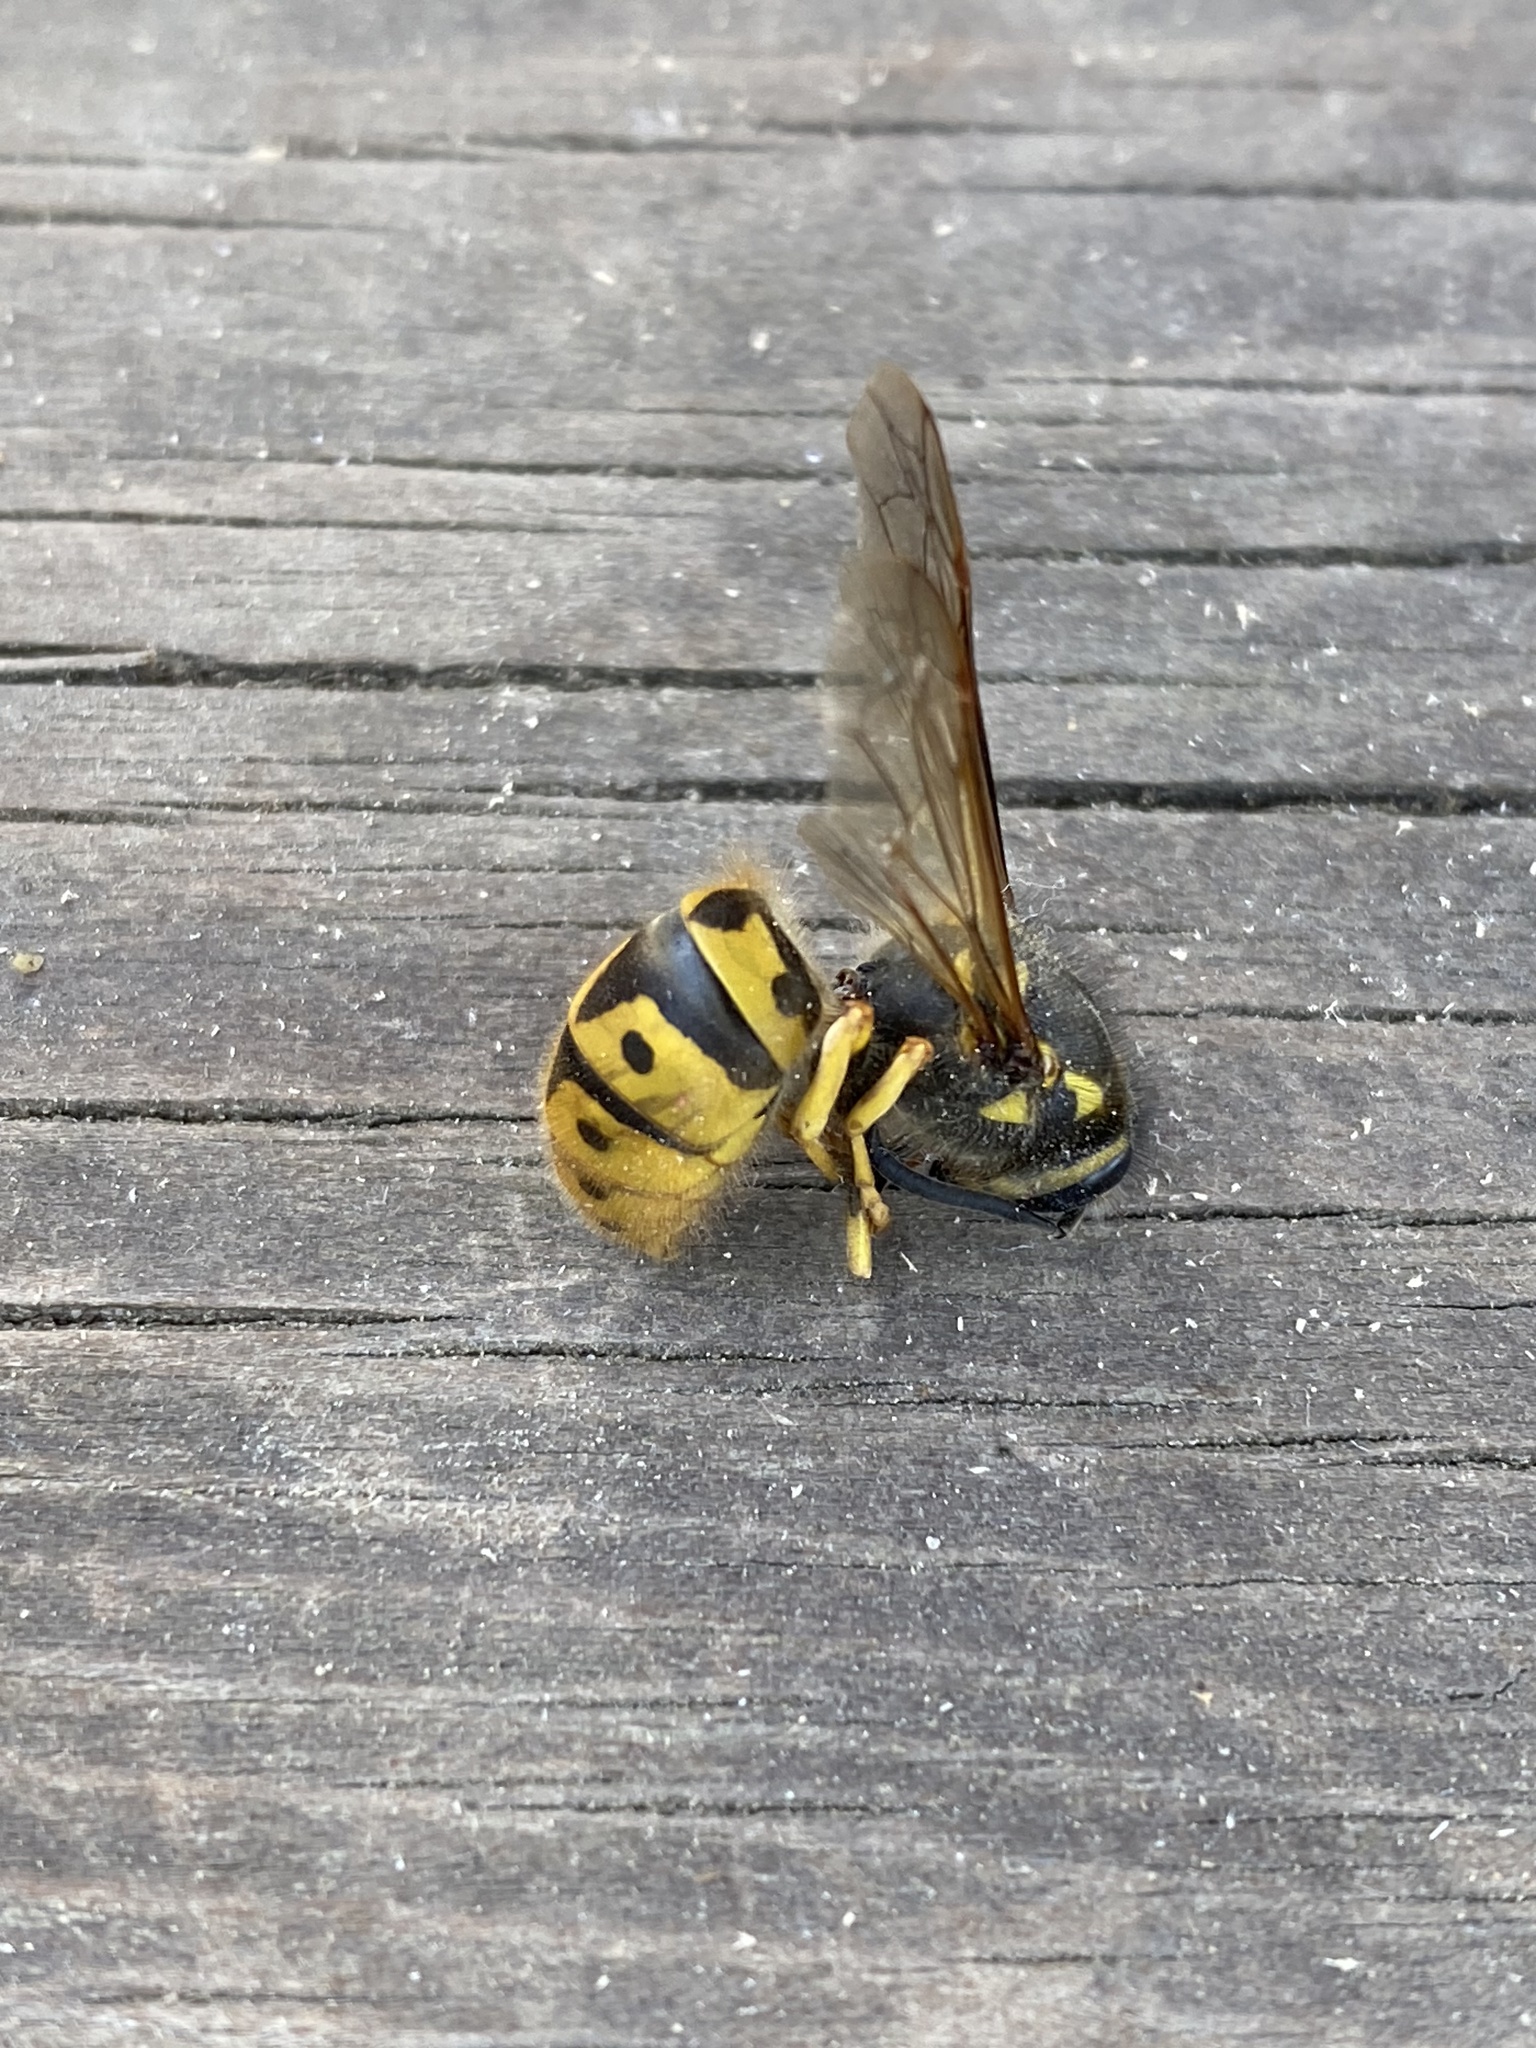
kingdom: Animalia
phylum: Arthropoda
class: Insecta
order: Hymenoptera
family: Vespidae
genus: Vespula
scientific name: Vespula germanica
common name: German wasp
